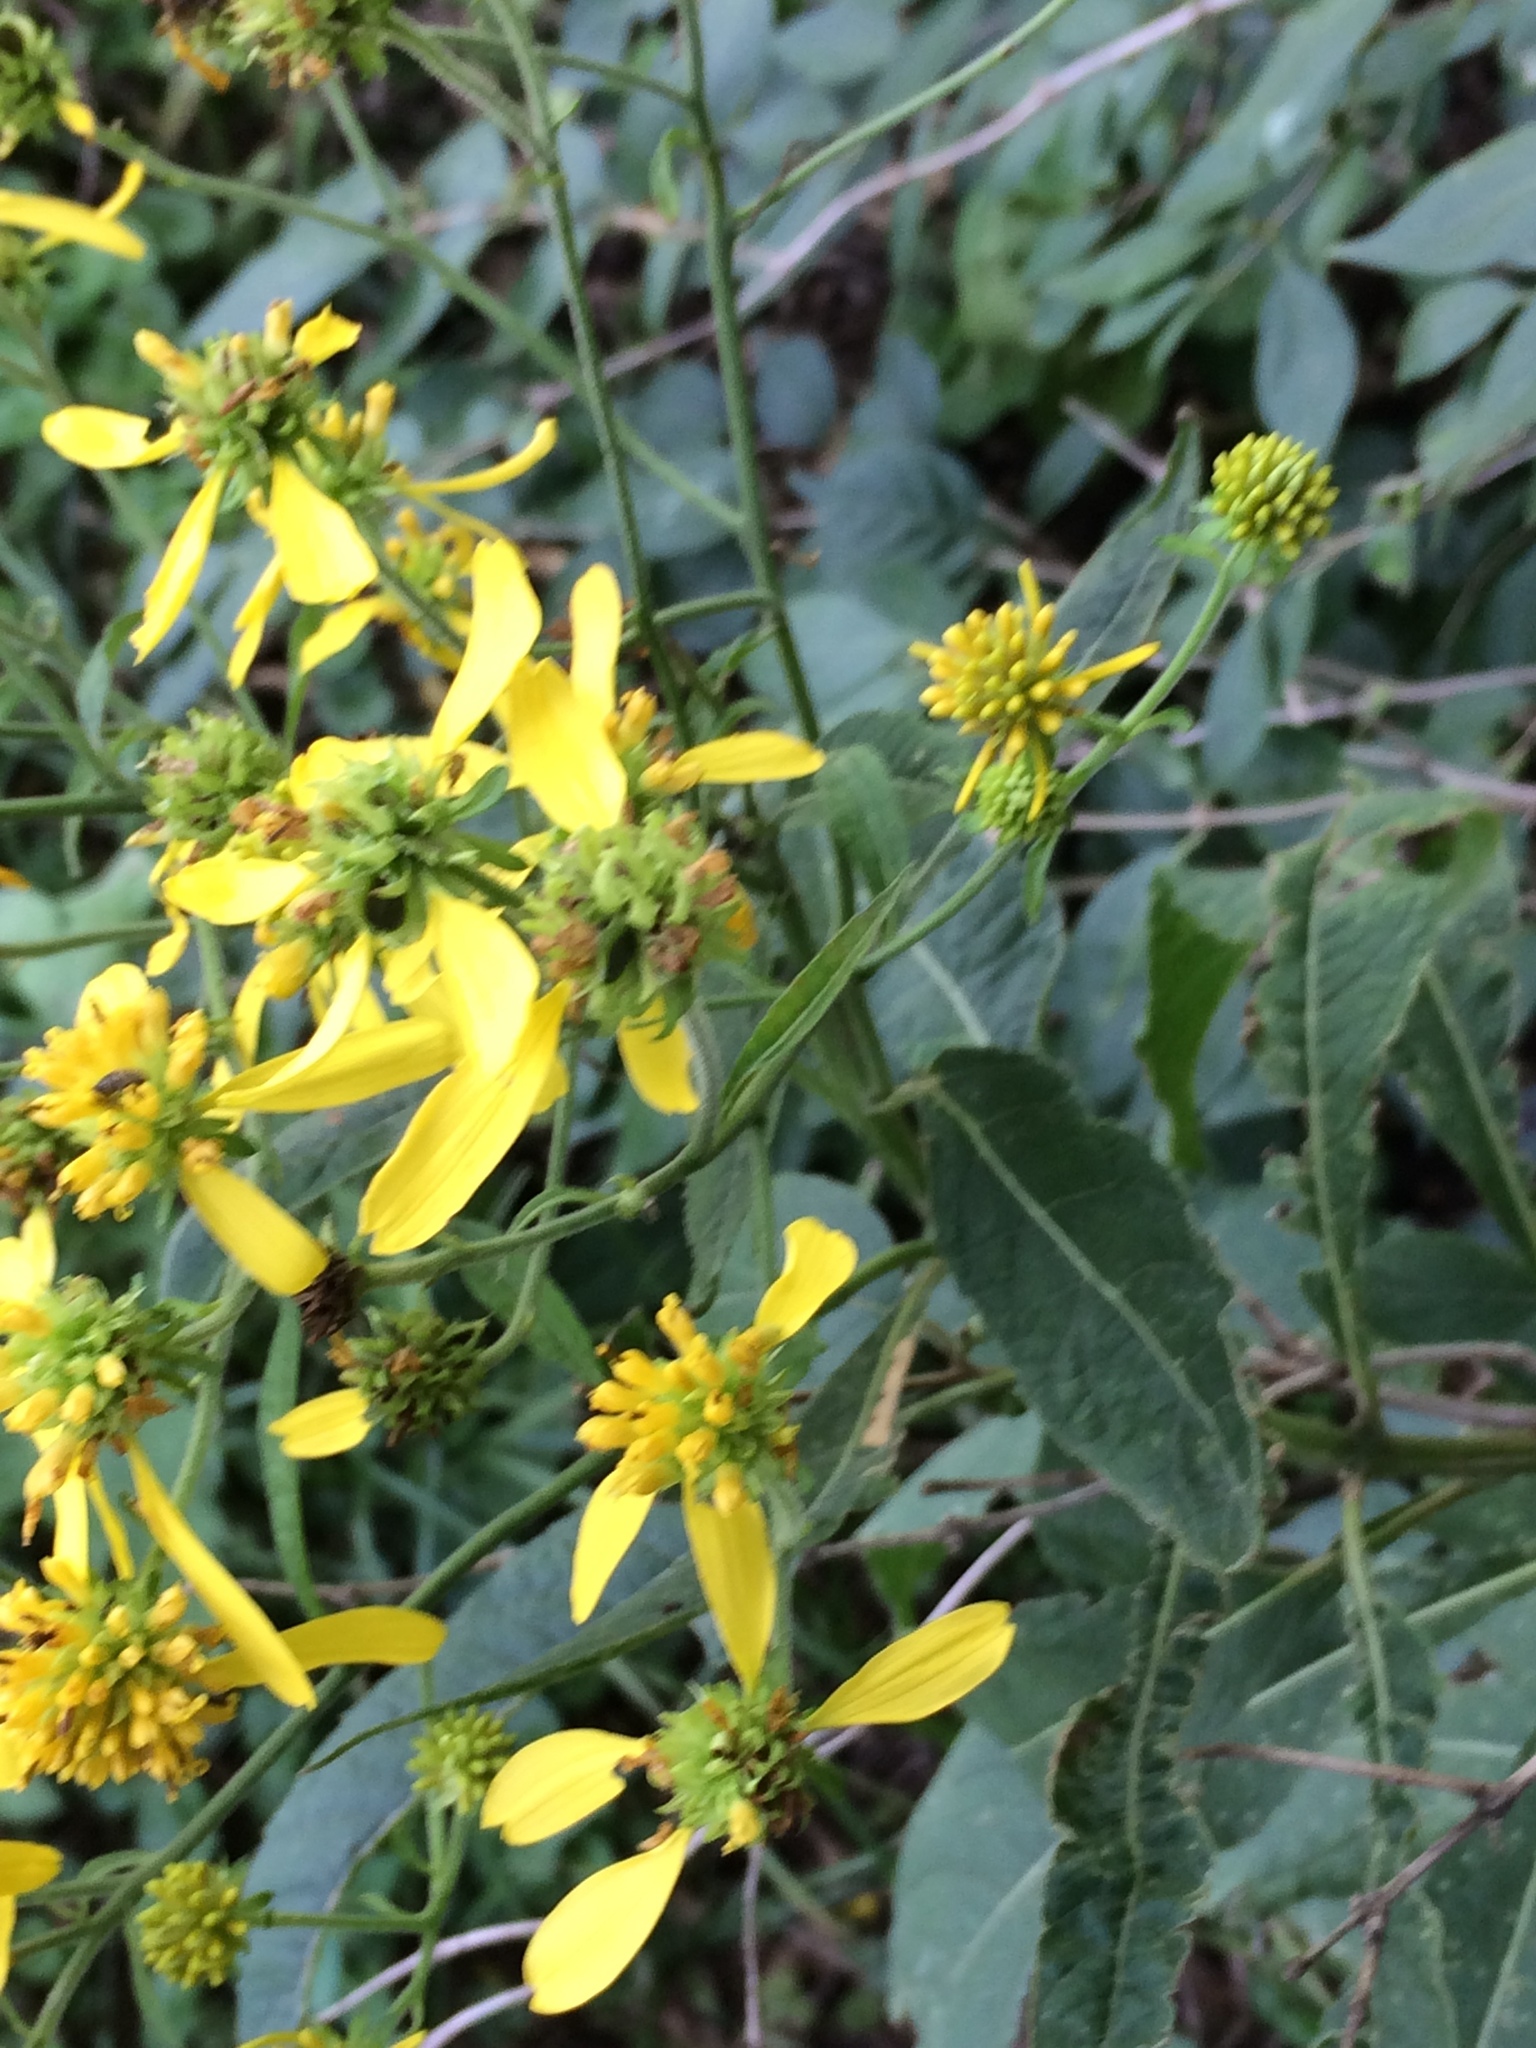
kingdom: Plantae
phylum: Tracheophyta
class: Magnoliopsida
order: Asterales
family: Asteraceae
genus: Verbesina
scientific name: Verbesina alternifolia
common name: Wingstem
